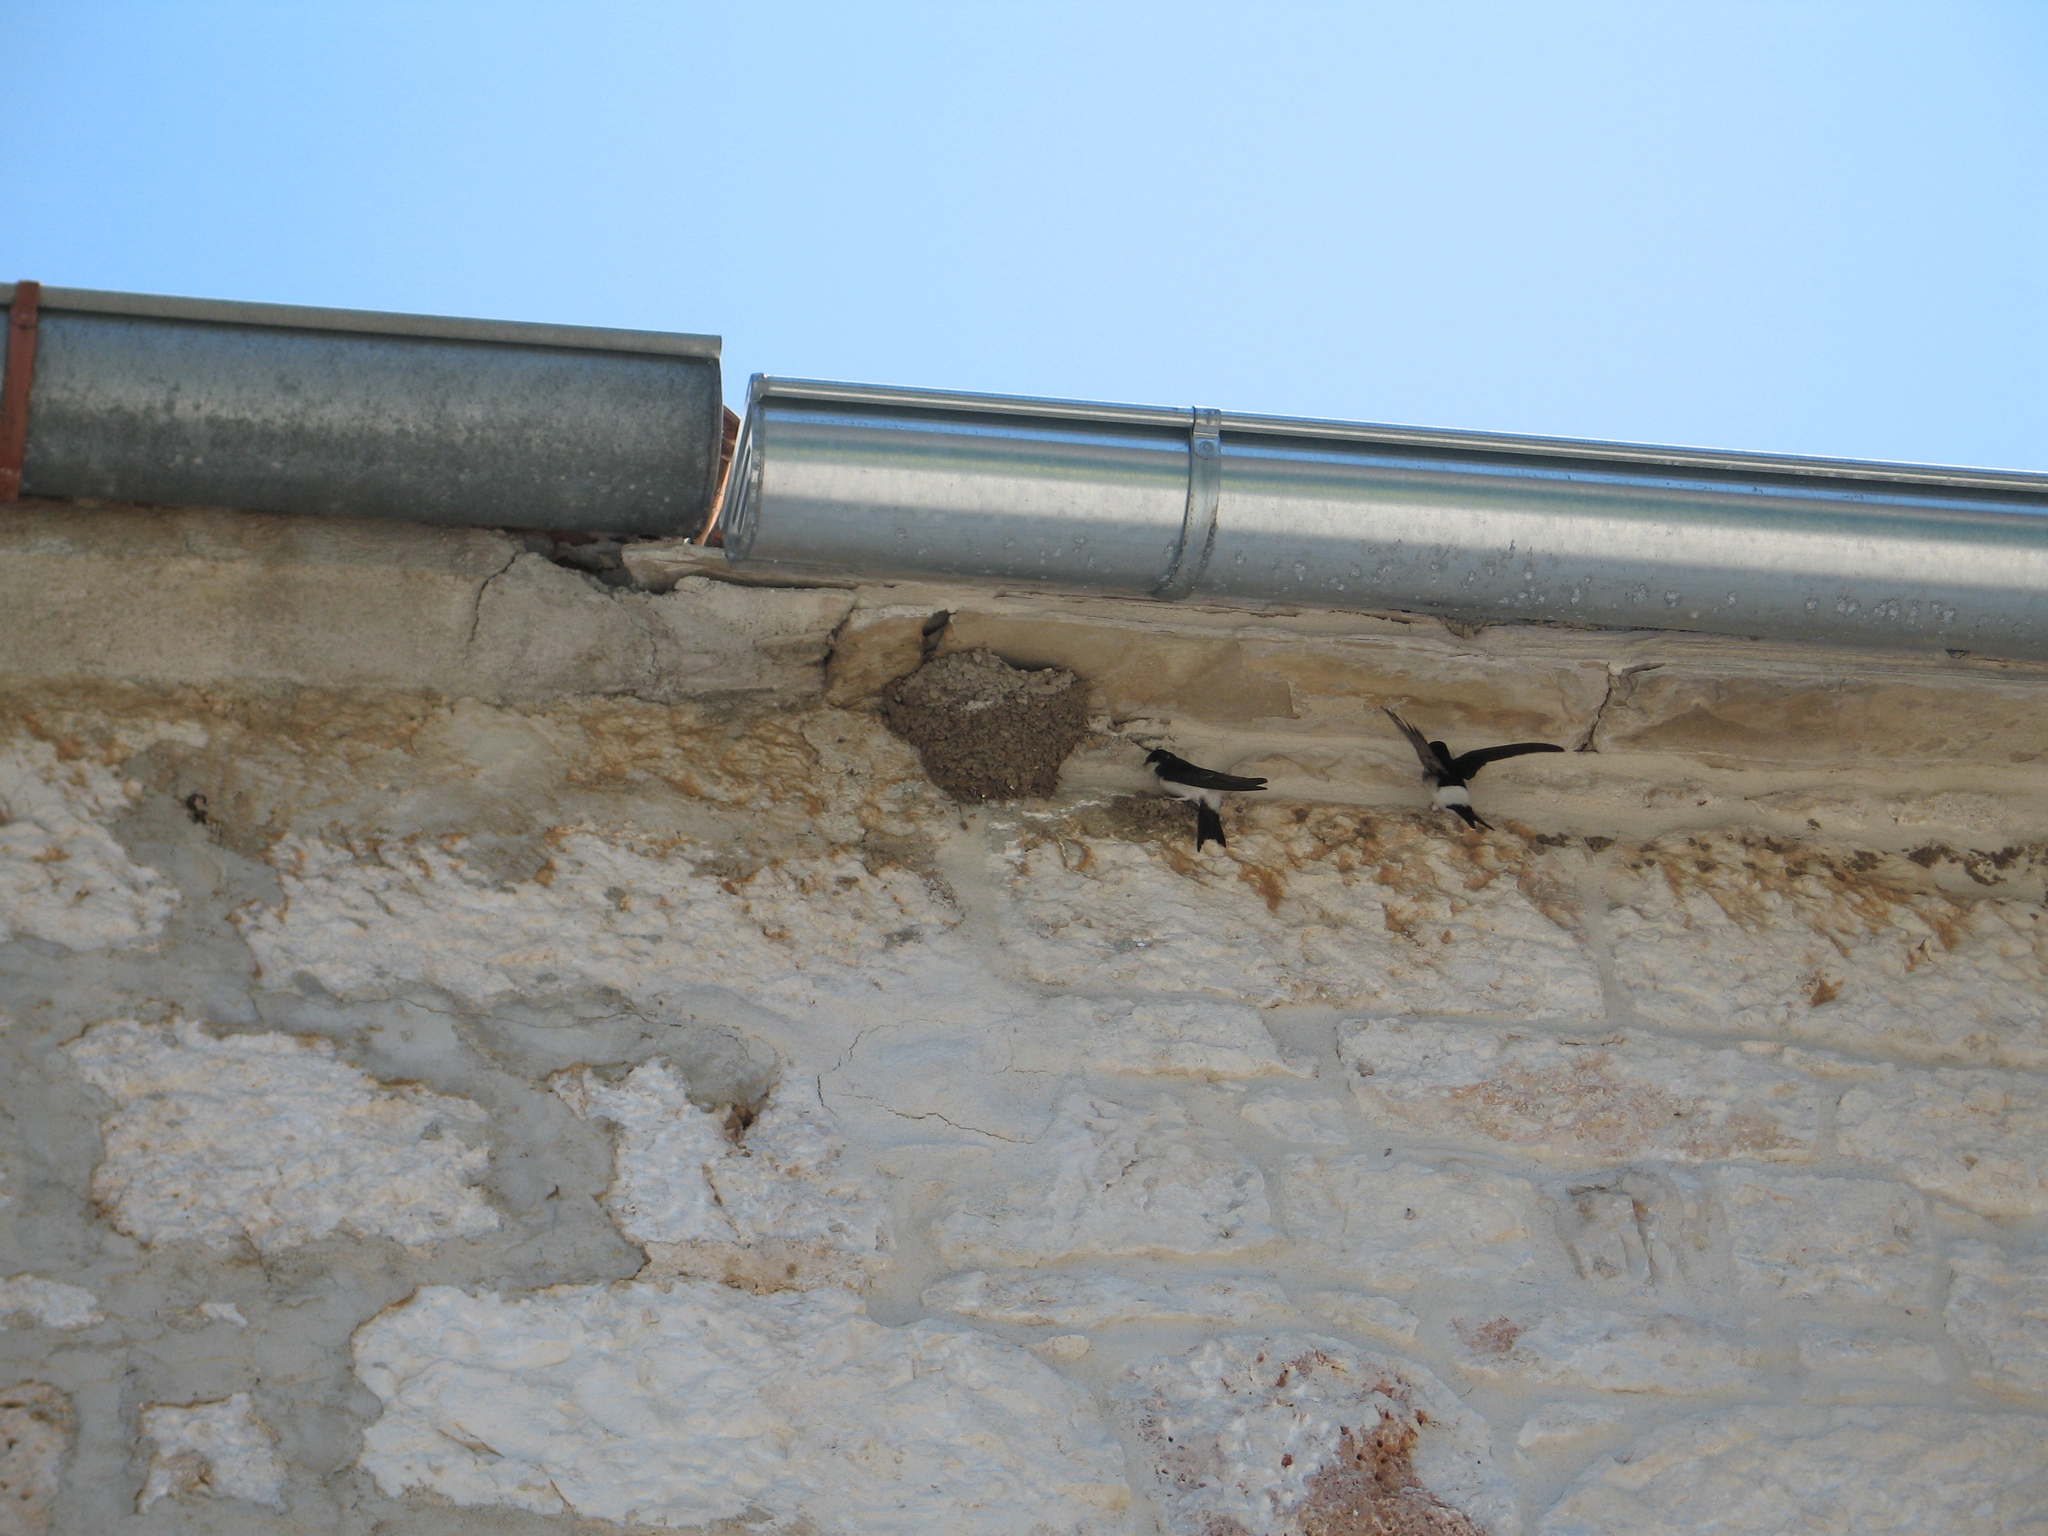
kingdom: Animalia
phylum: Chordata
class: Aves
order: Passeriformes
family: Hirundinidae
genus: Delichon
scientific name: Delichon urbicum
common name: Common house martin
